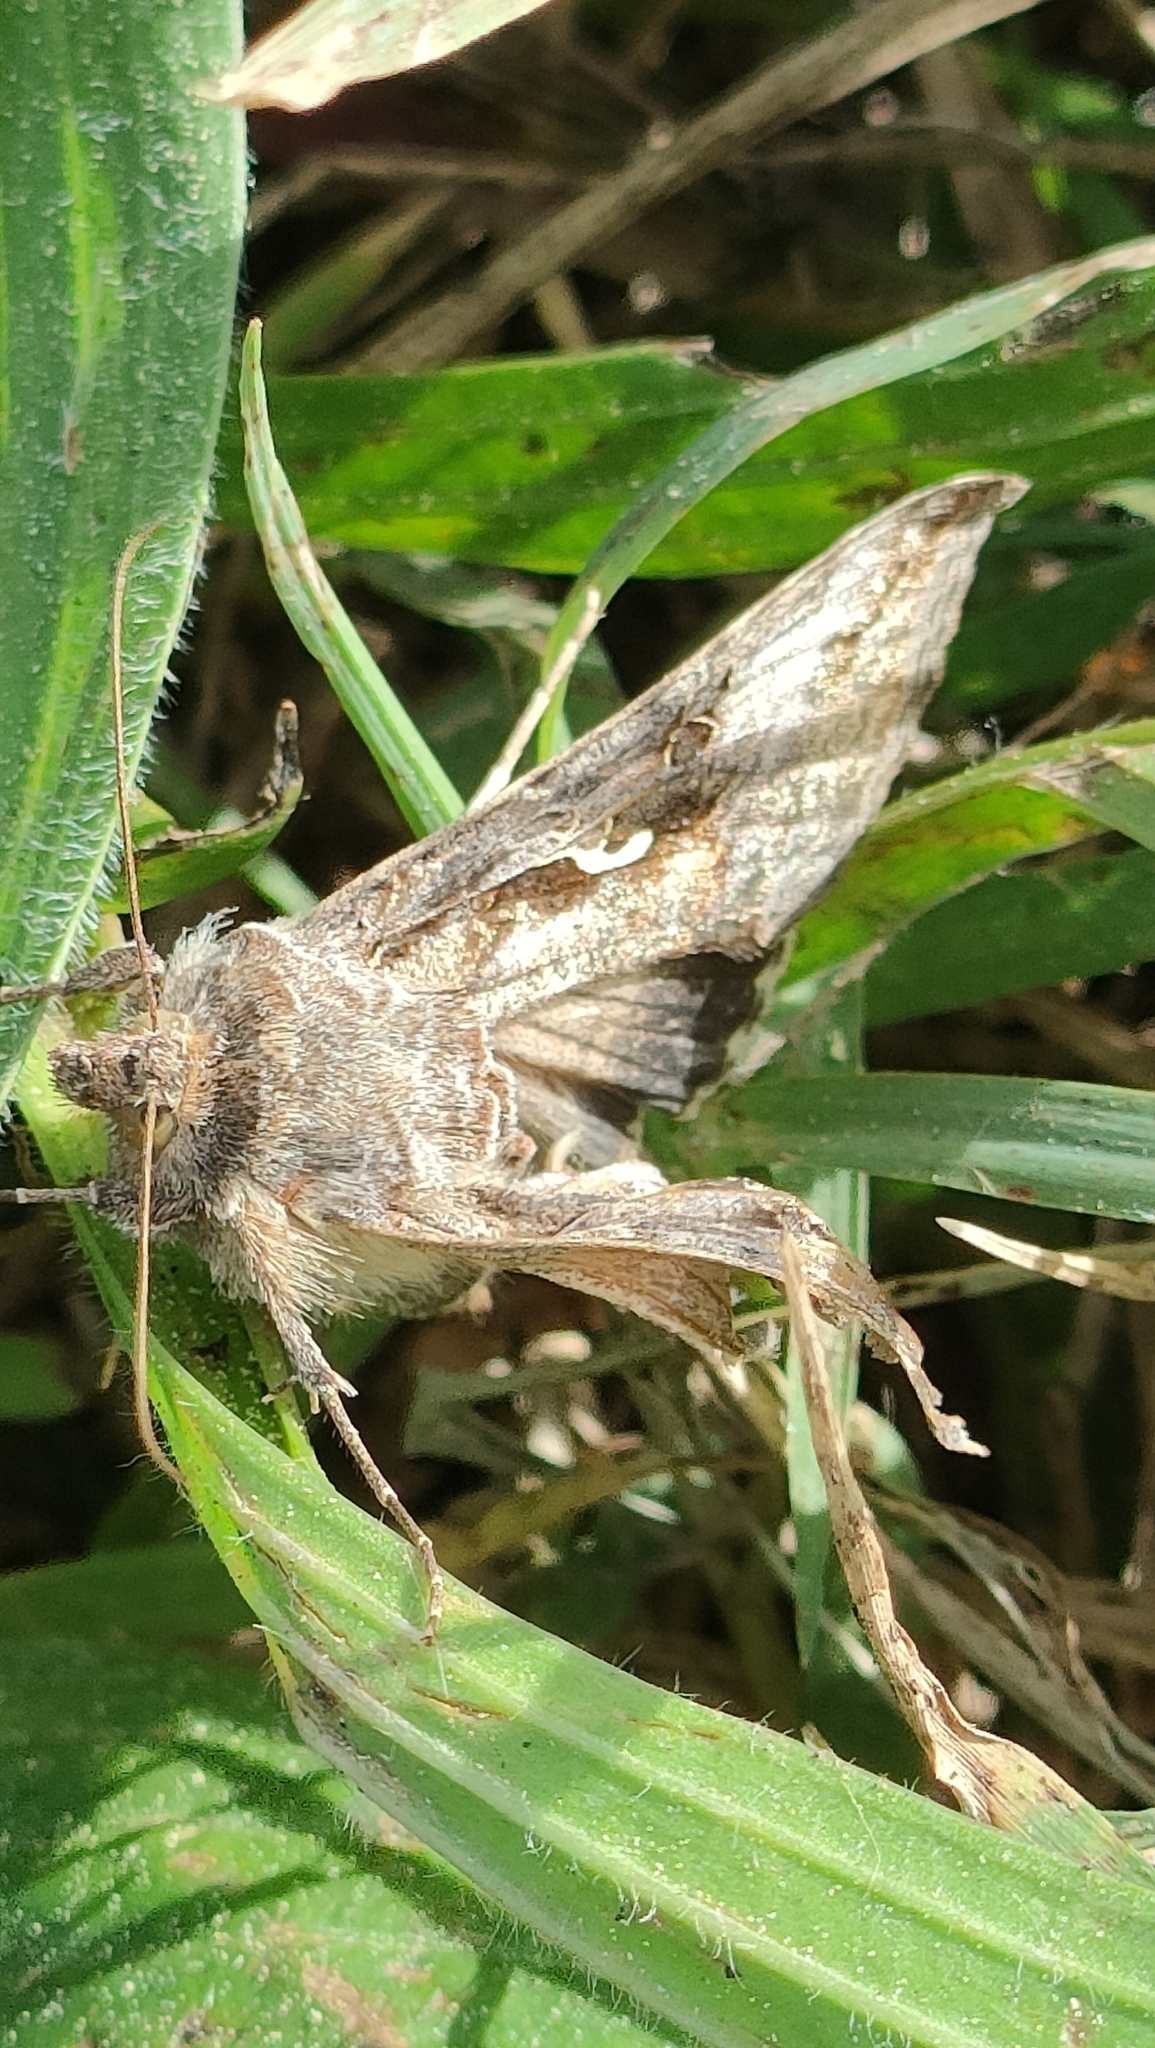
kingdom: Animalia
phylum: Arthropoda
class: Insecta
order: Lepidoptera
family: Noctuidae
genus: Autographa
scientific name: Autographa gamma
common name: Silver y
